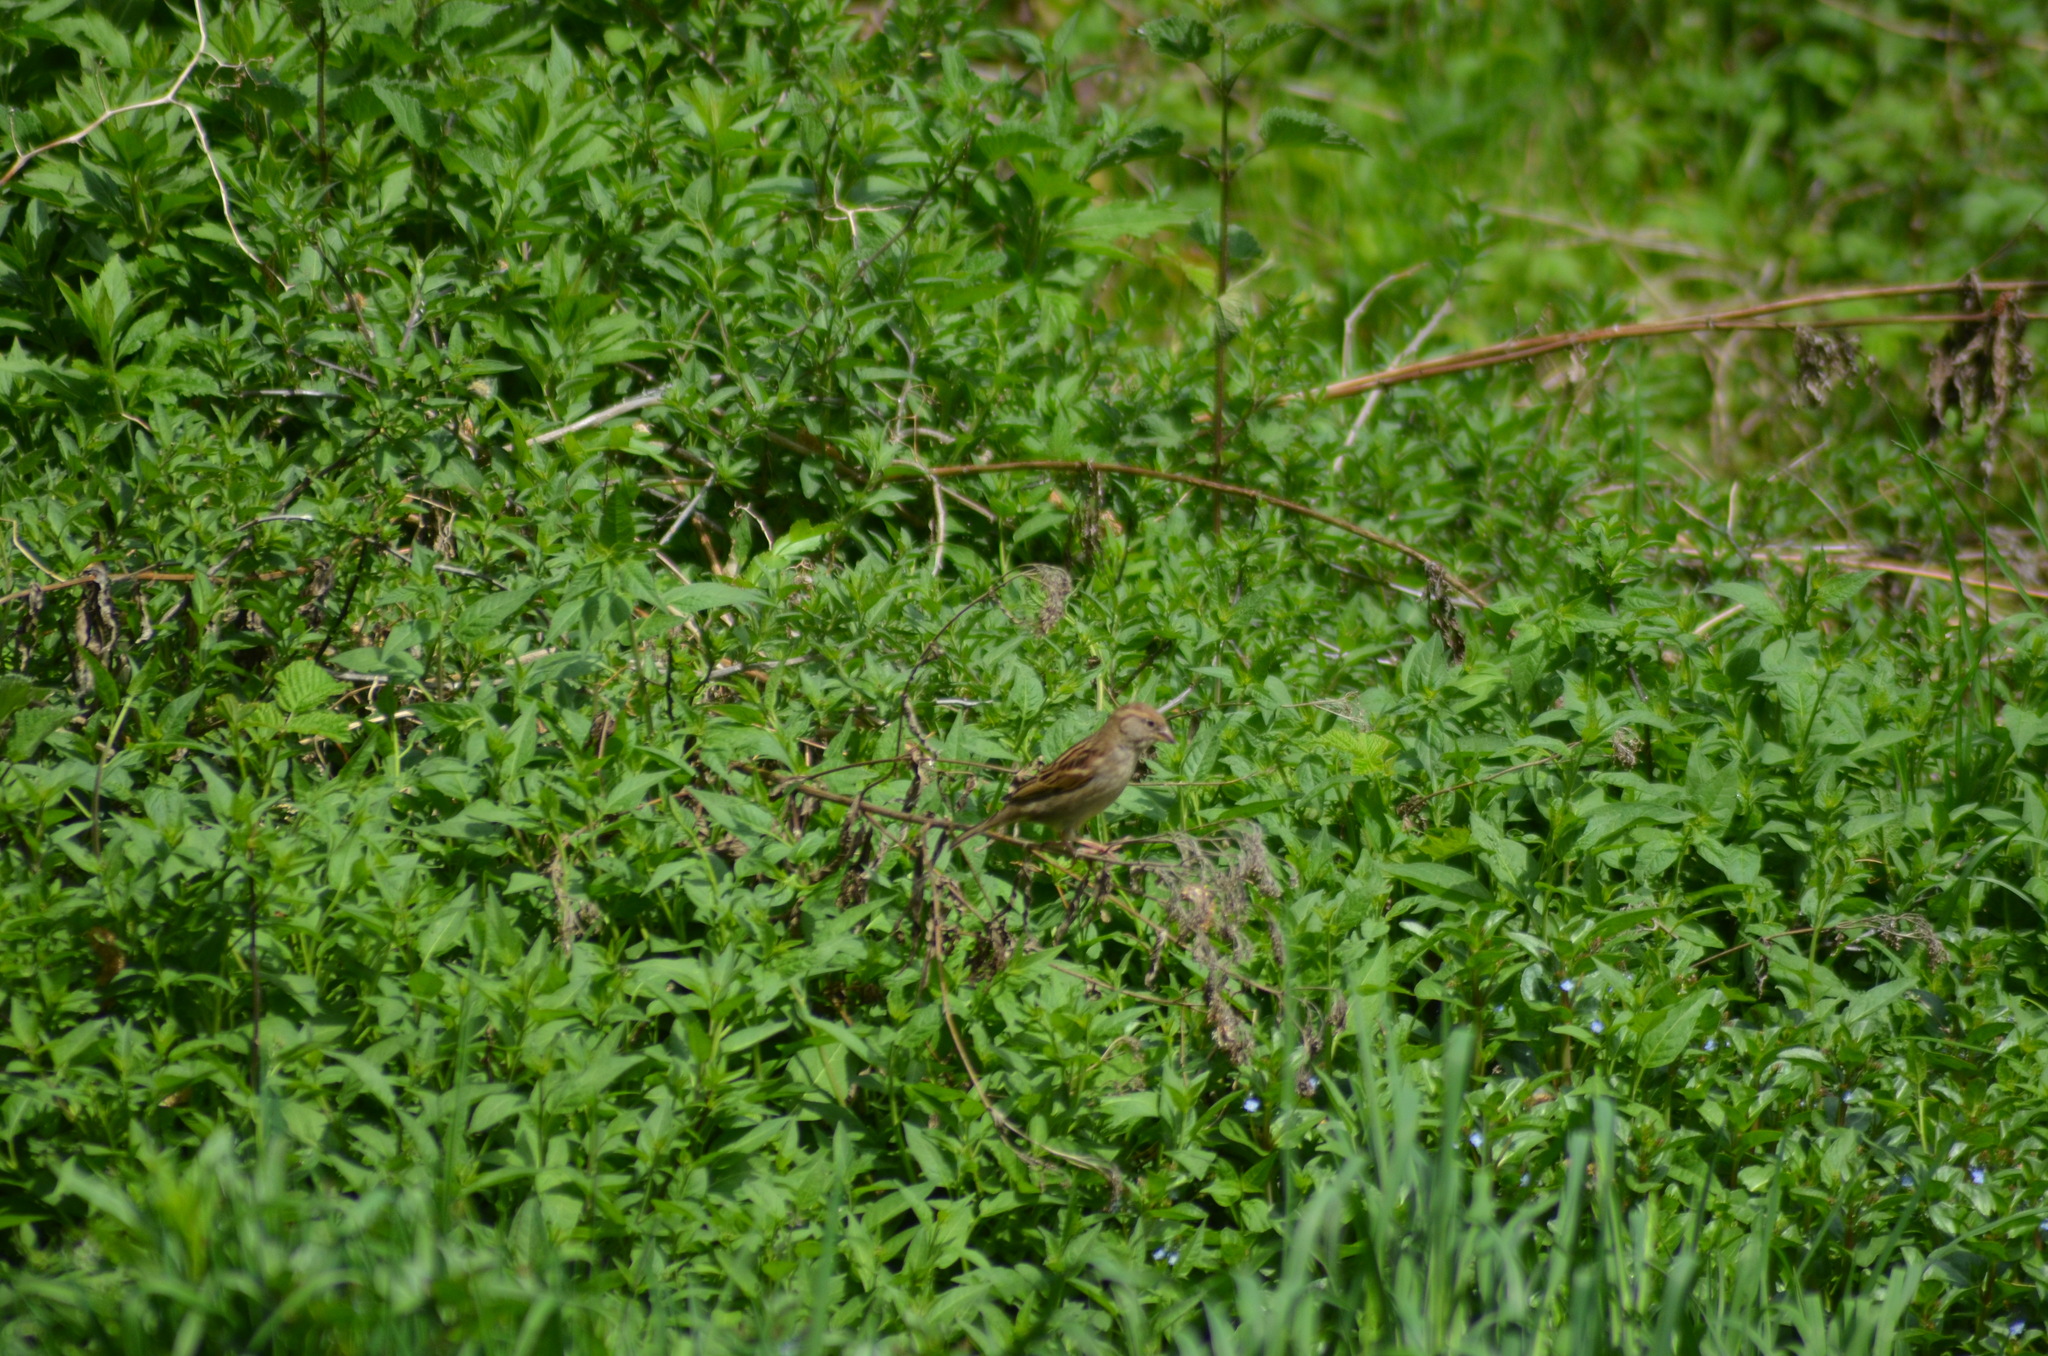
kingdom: Animalia
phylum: Chordata
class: Aves
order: Passeriformes
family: Passeridae
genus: Passer
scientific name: Passer domesticus
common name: House sparrow
